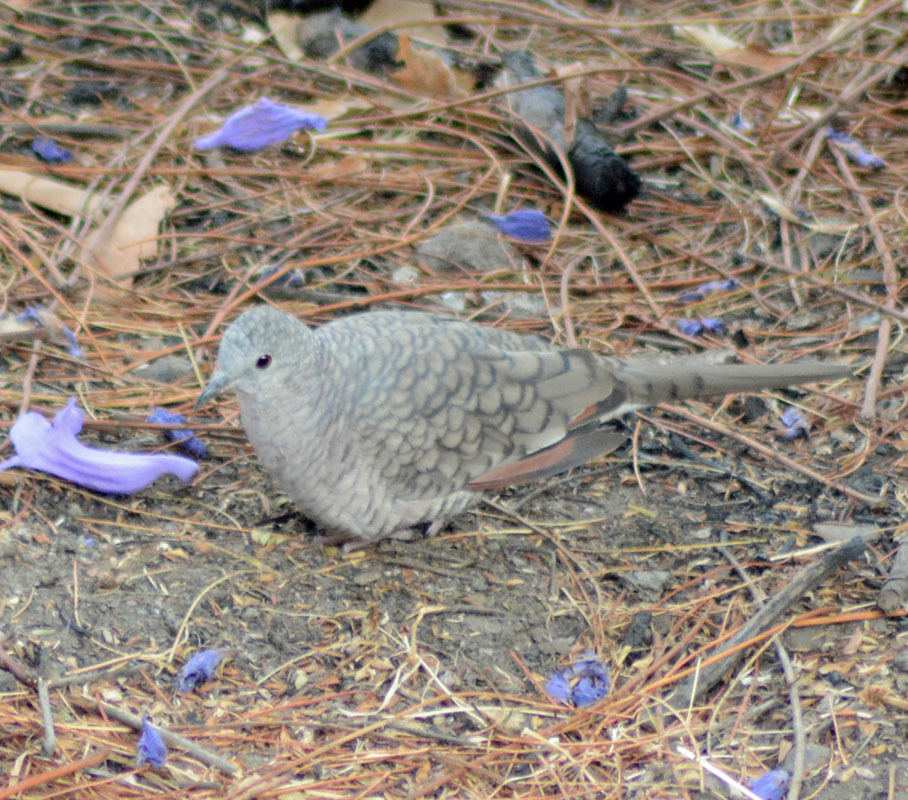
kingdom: Animalia
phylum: Chordata
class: Aves
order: Columbiformes
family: Columbidae
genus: Columbina
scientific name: Columbina inca
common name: Inca dove
